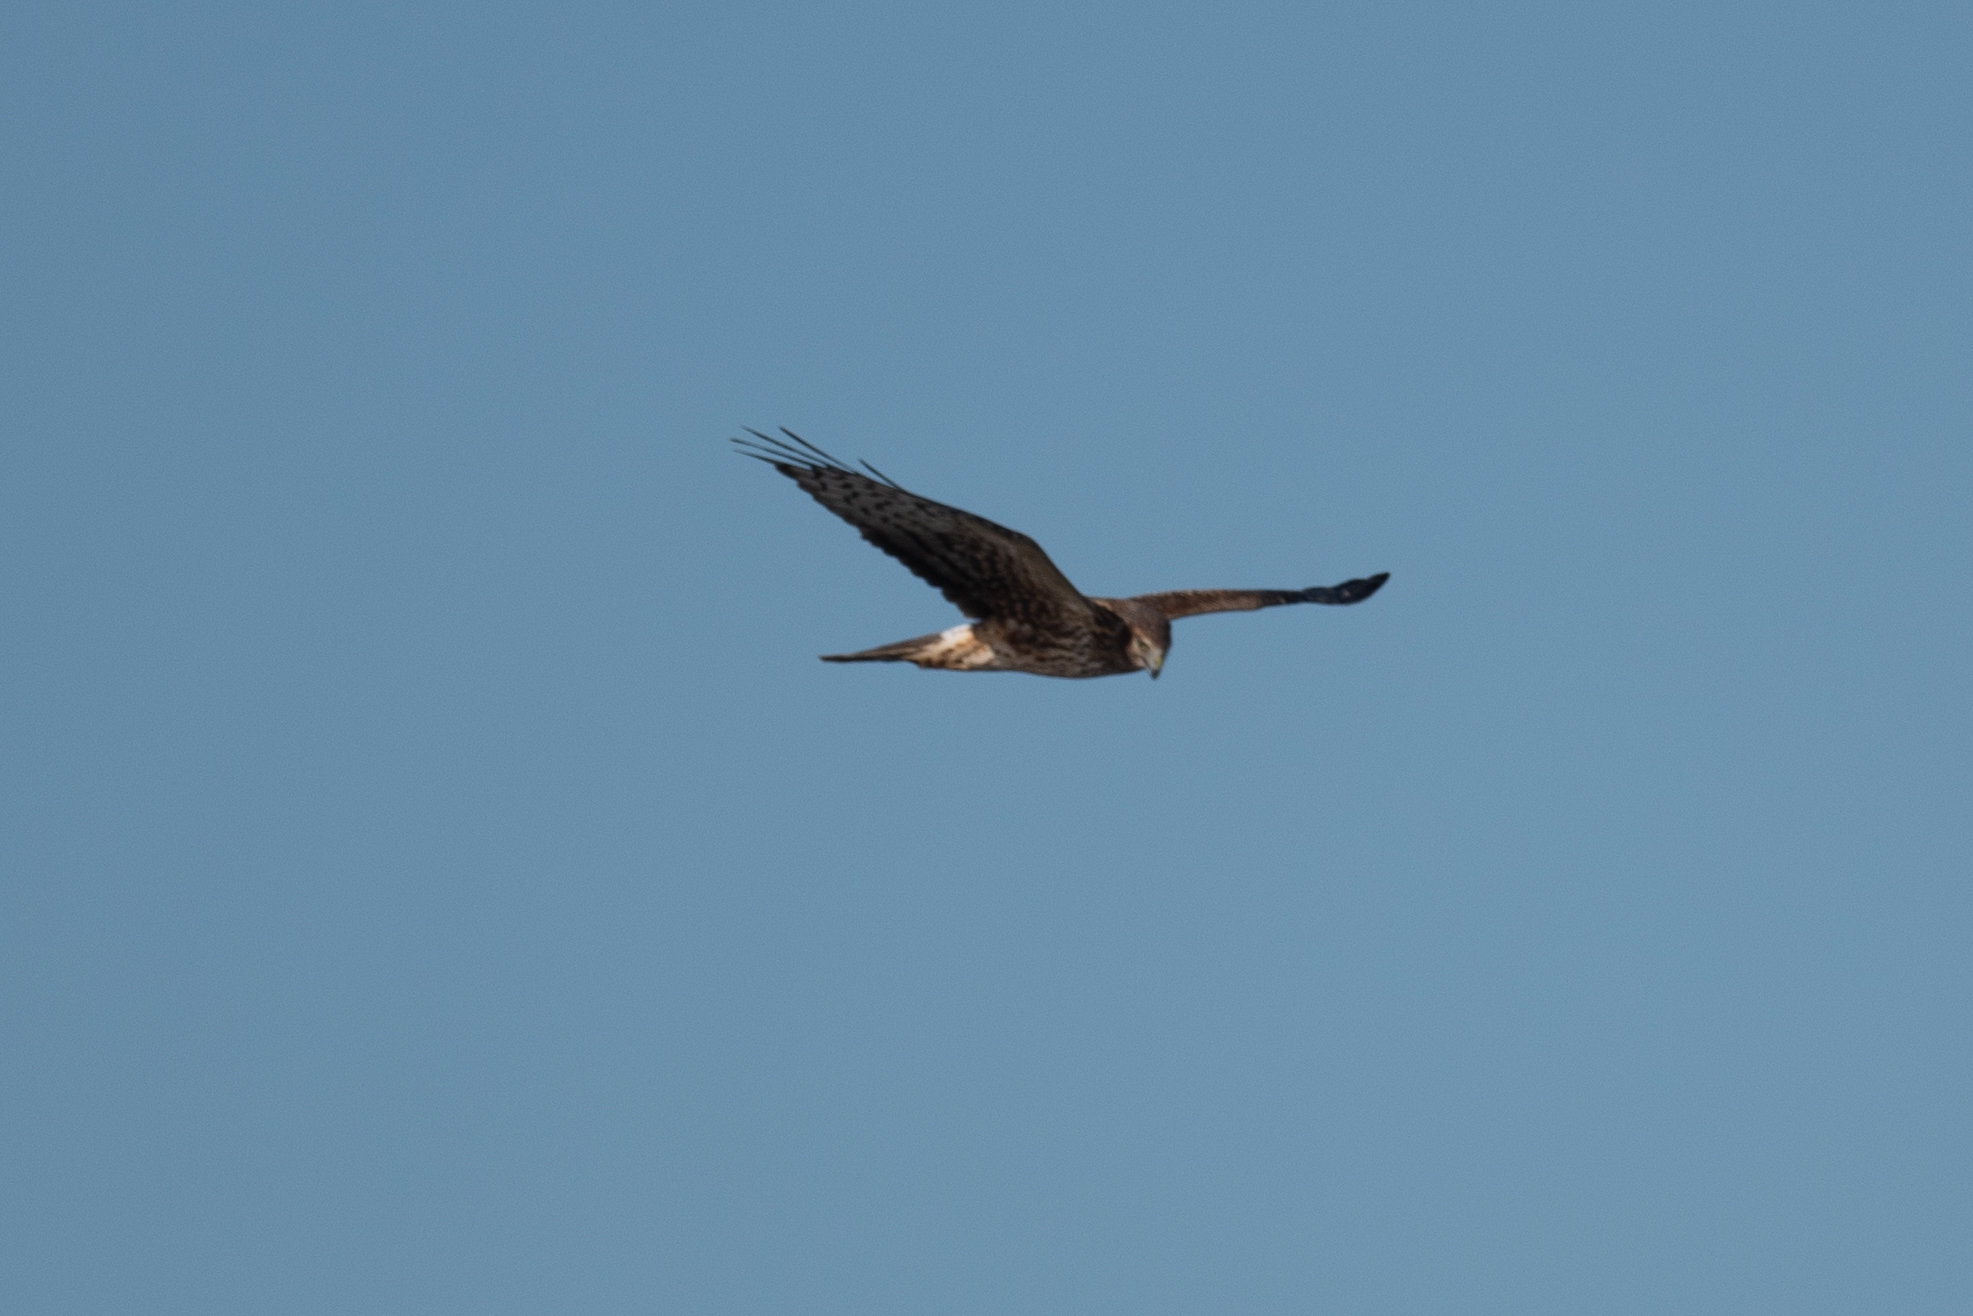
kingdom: Animalia
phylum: Chordata
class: Aves
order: Accipitriformes
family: Accipitridae
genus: Circus
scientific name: Circus cyaneus
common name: Hen harrier
